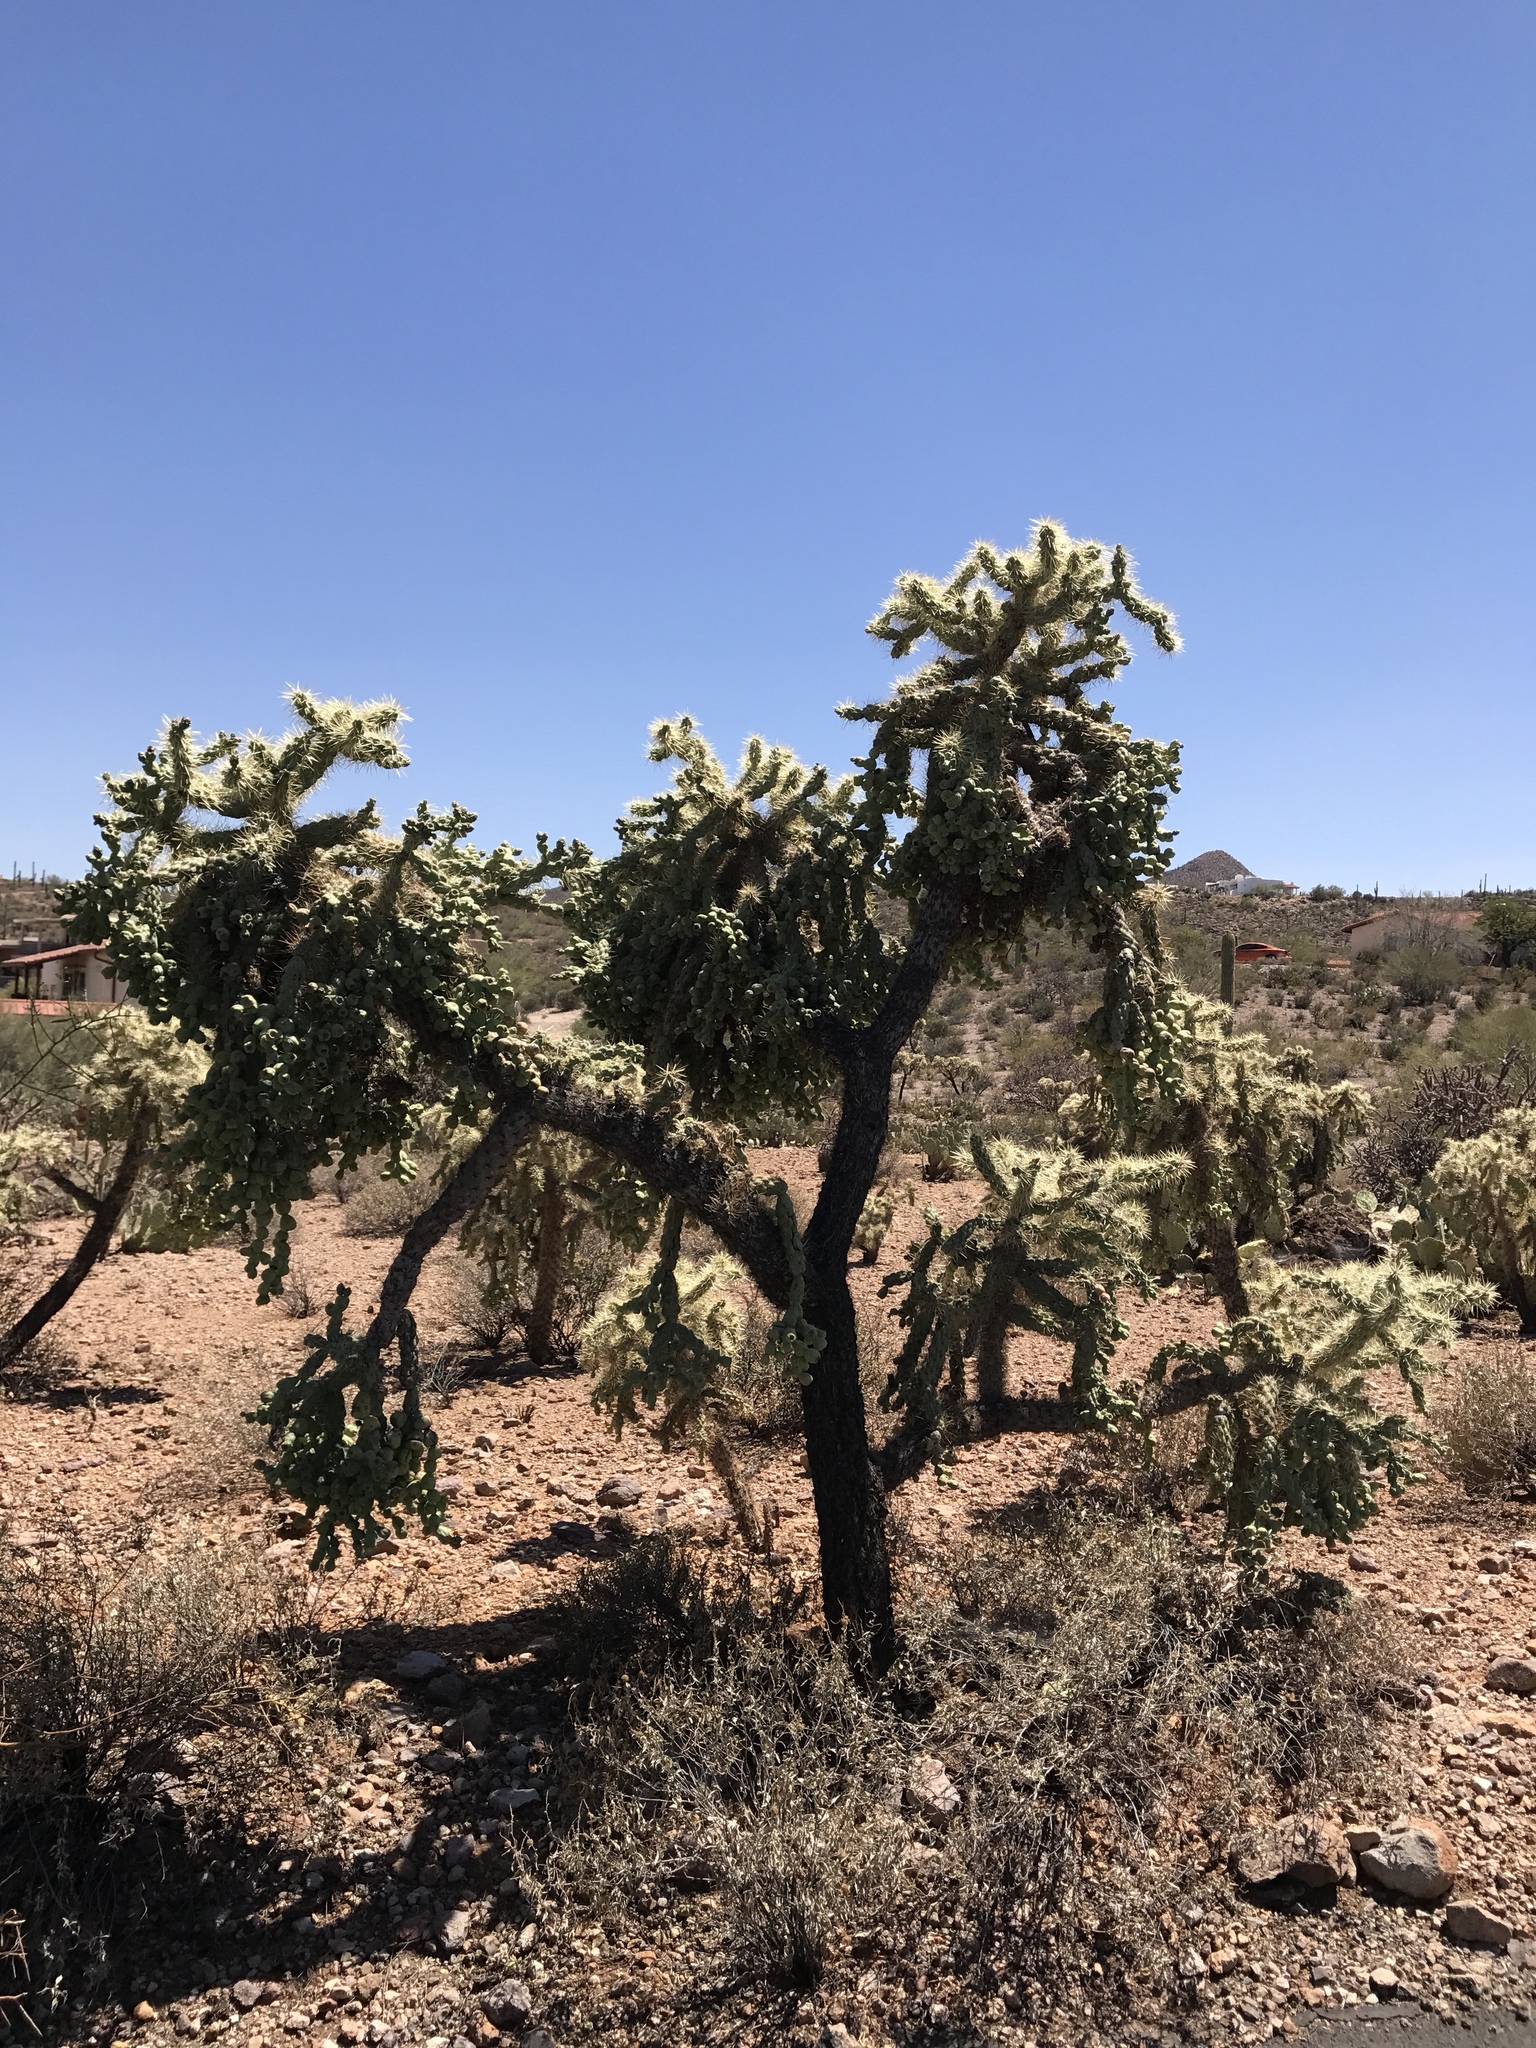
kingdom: Plantae
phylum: Tracheophyta
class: Magnoliopsida
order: Caryophyllales
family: Cactaceae
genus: Cylindropuntia
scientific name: Cylindropuntia fulgida
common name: Jumping cholla
